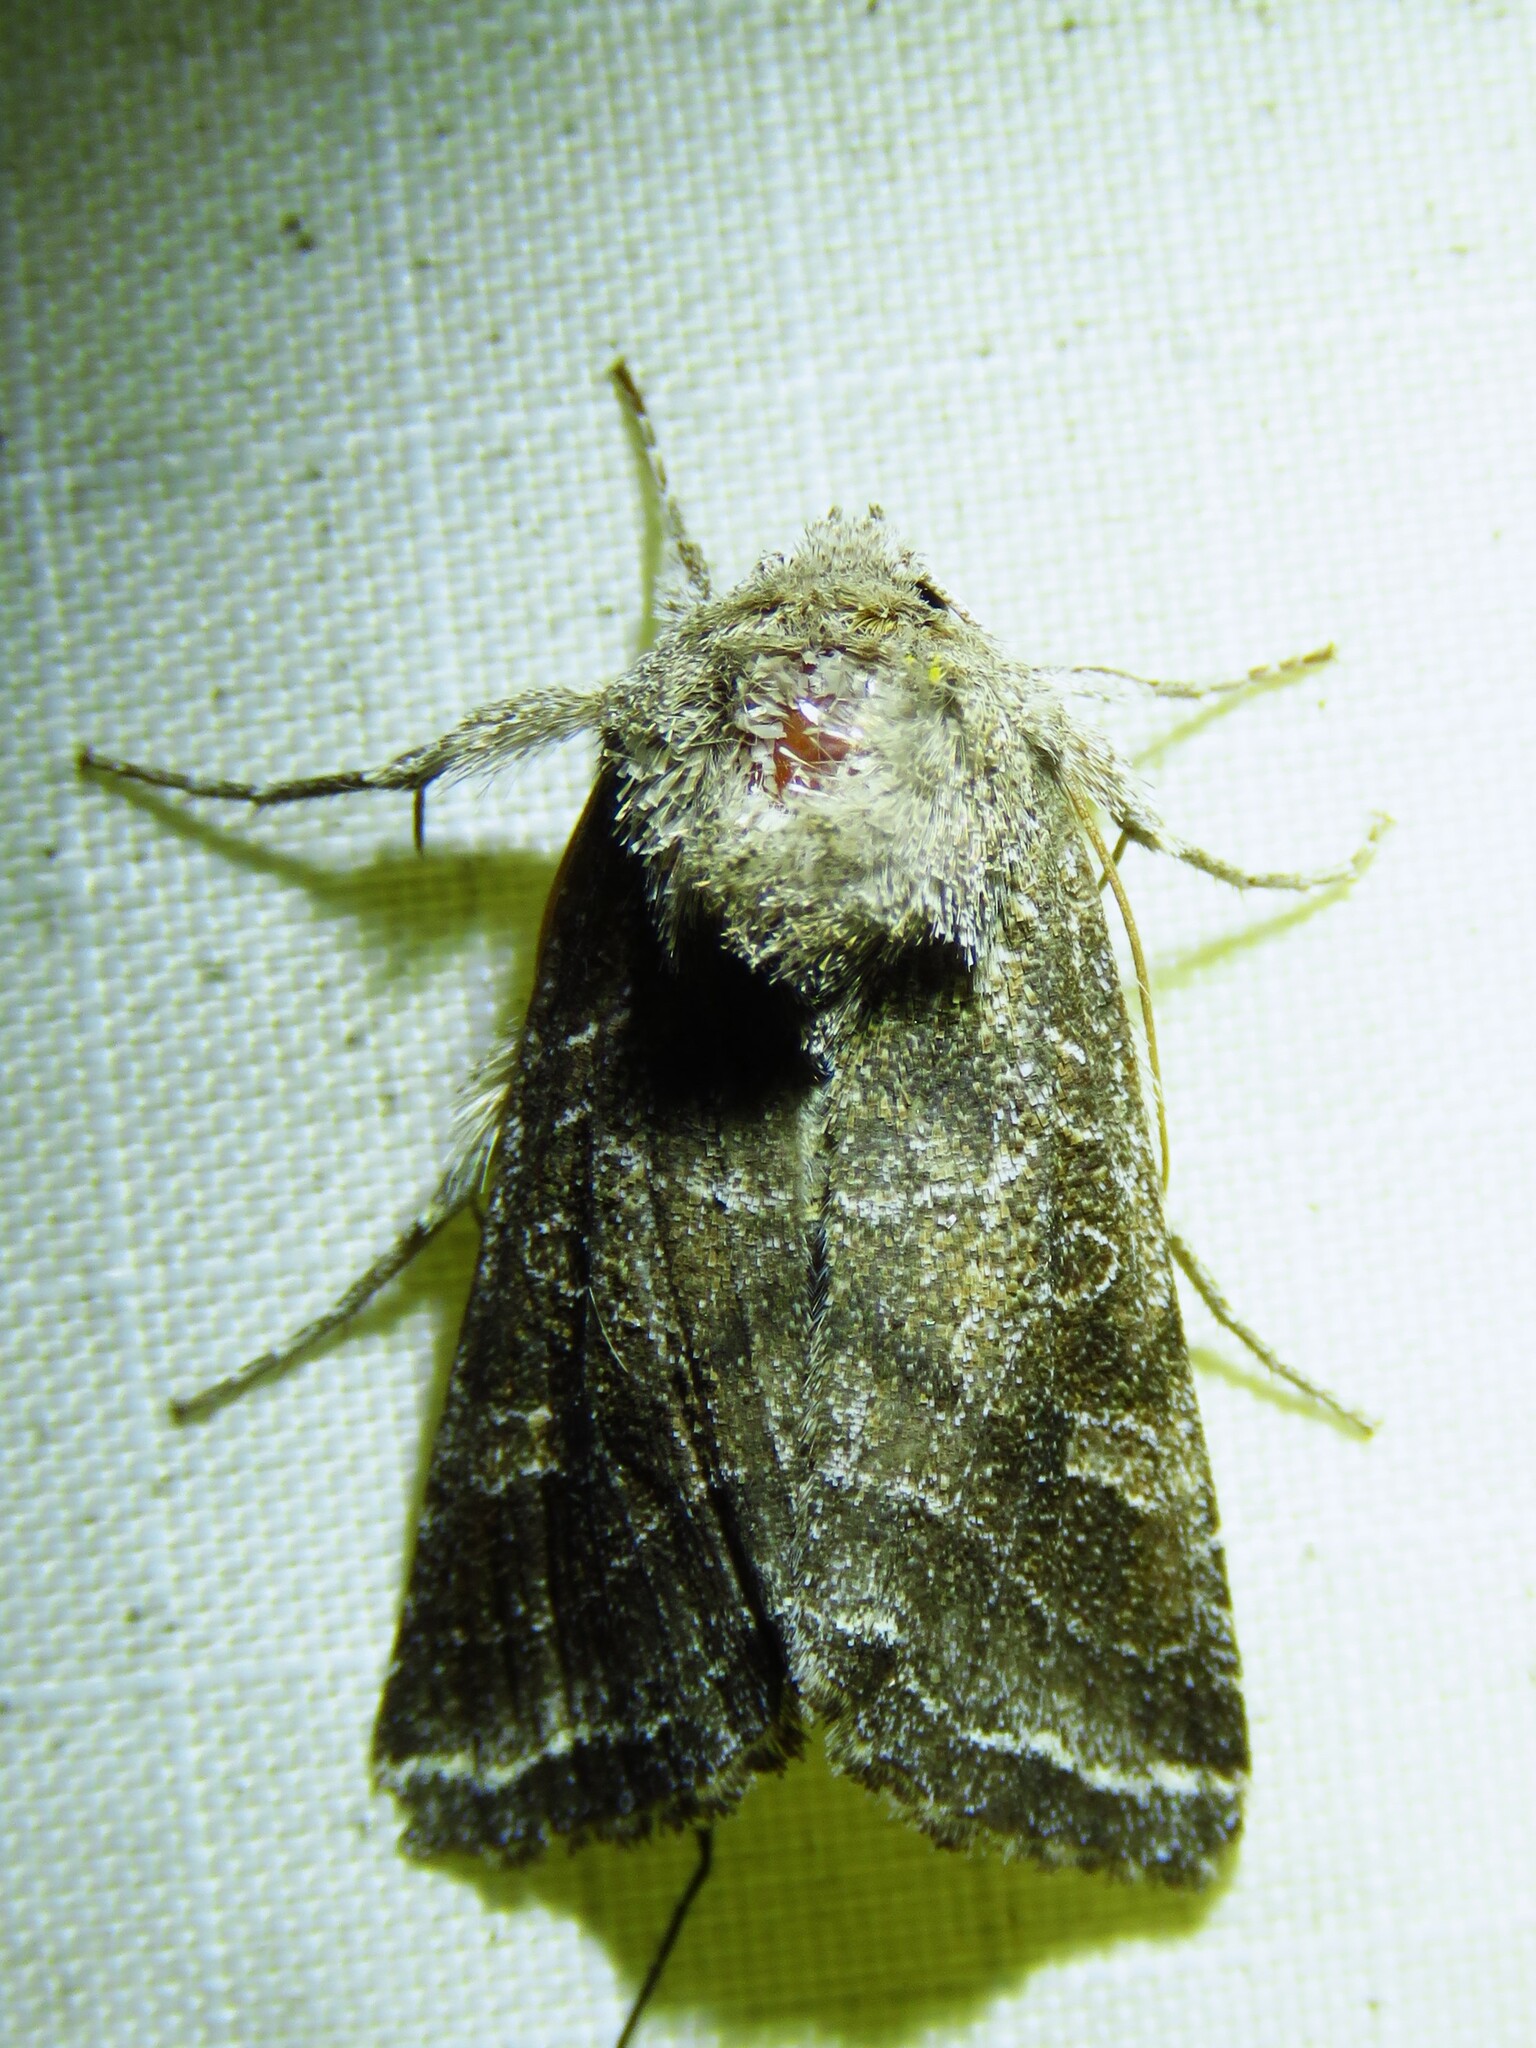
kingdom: Animalia
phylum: Arthropoda
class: Insecta
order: Lepidoptera
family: Noctuidae
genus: Lacinipolia
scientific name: Lacinipolia erecta
